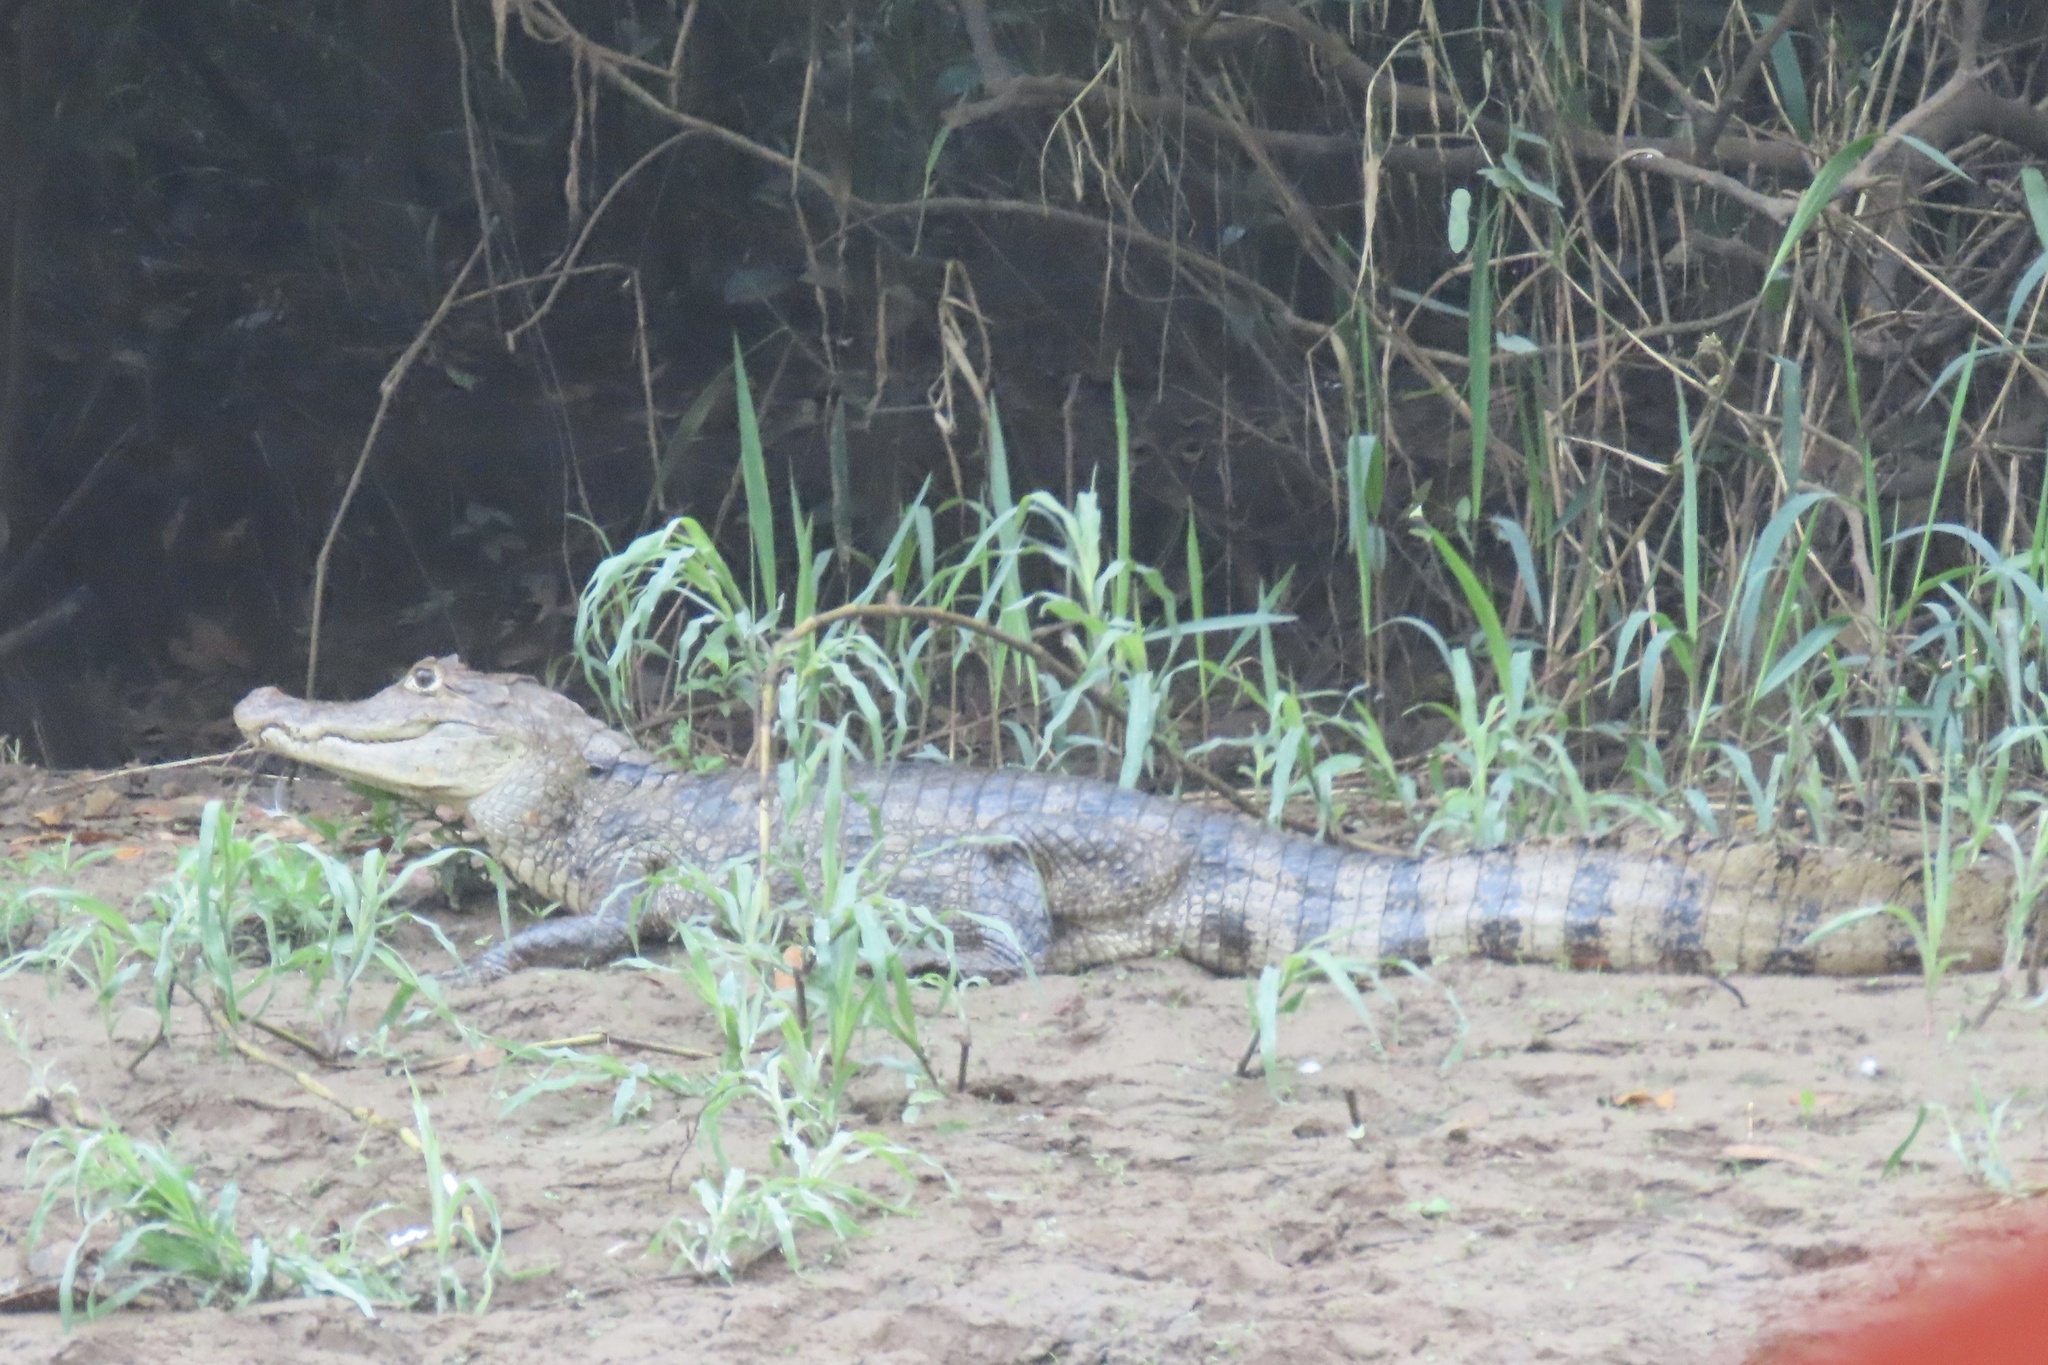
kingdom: Animalia
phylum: Chordata
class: Crocodylia
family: Alligatoridae
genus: Caiman
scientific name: Caiman crocodilus
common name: Common caiman
